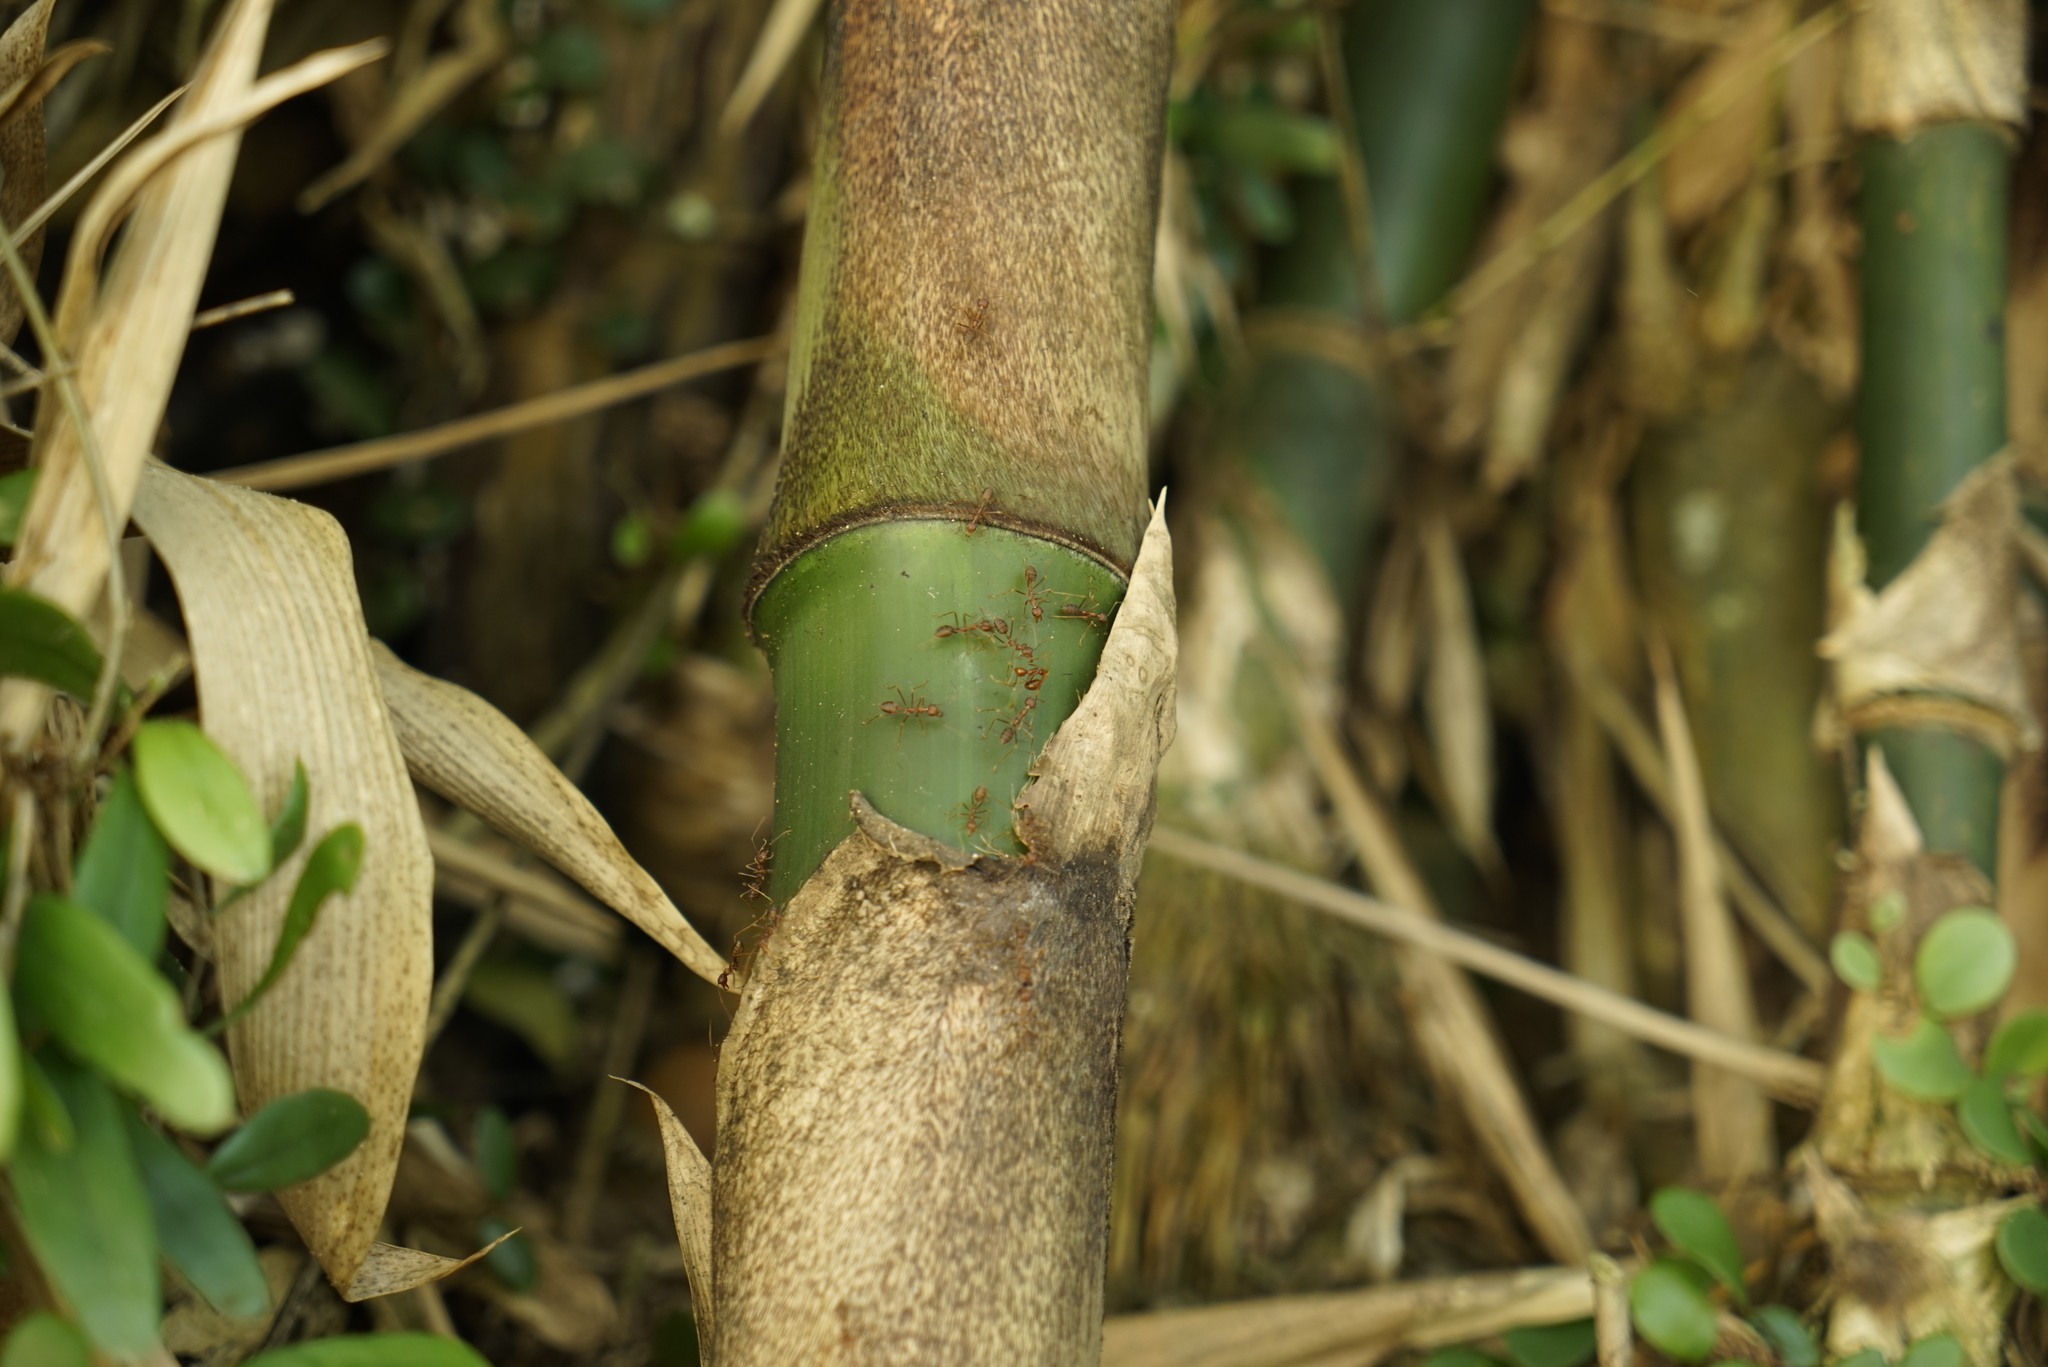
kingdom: Animalia
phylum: Arthropoda
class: Insecta
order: Hymenoptera
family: Formicidae
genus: Oecophylla
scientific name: Oecophylla smaragdina
